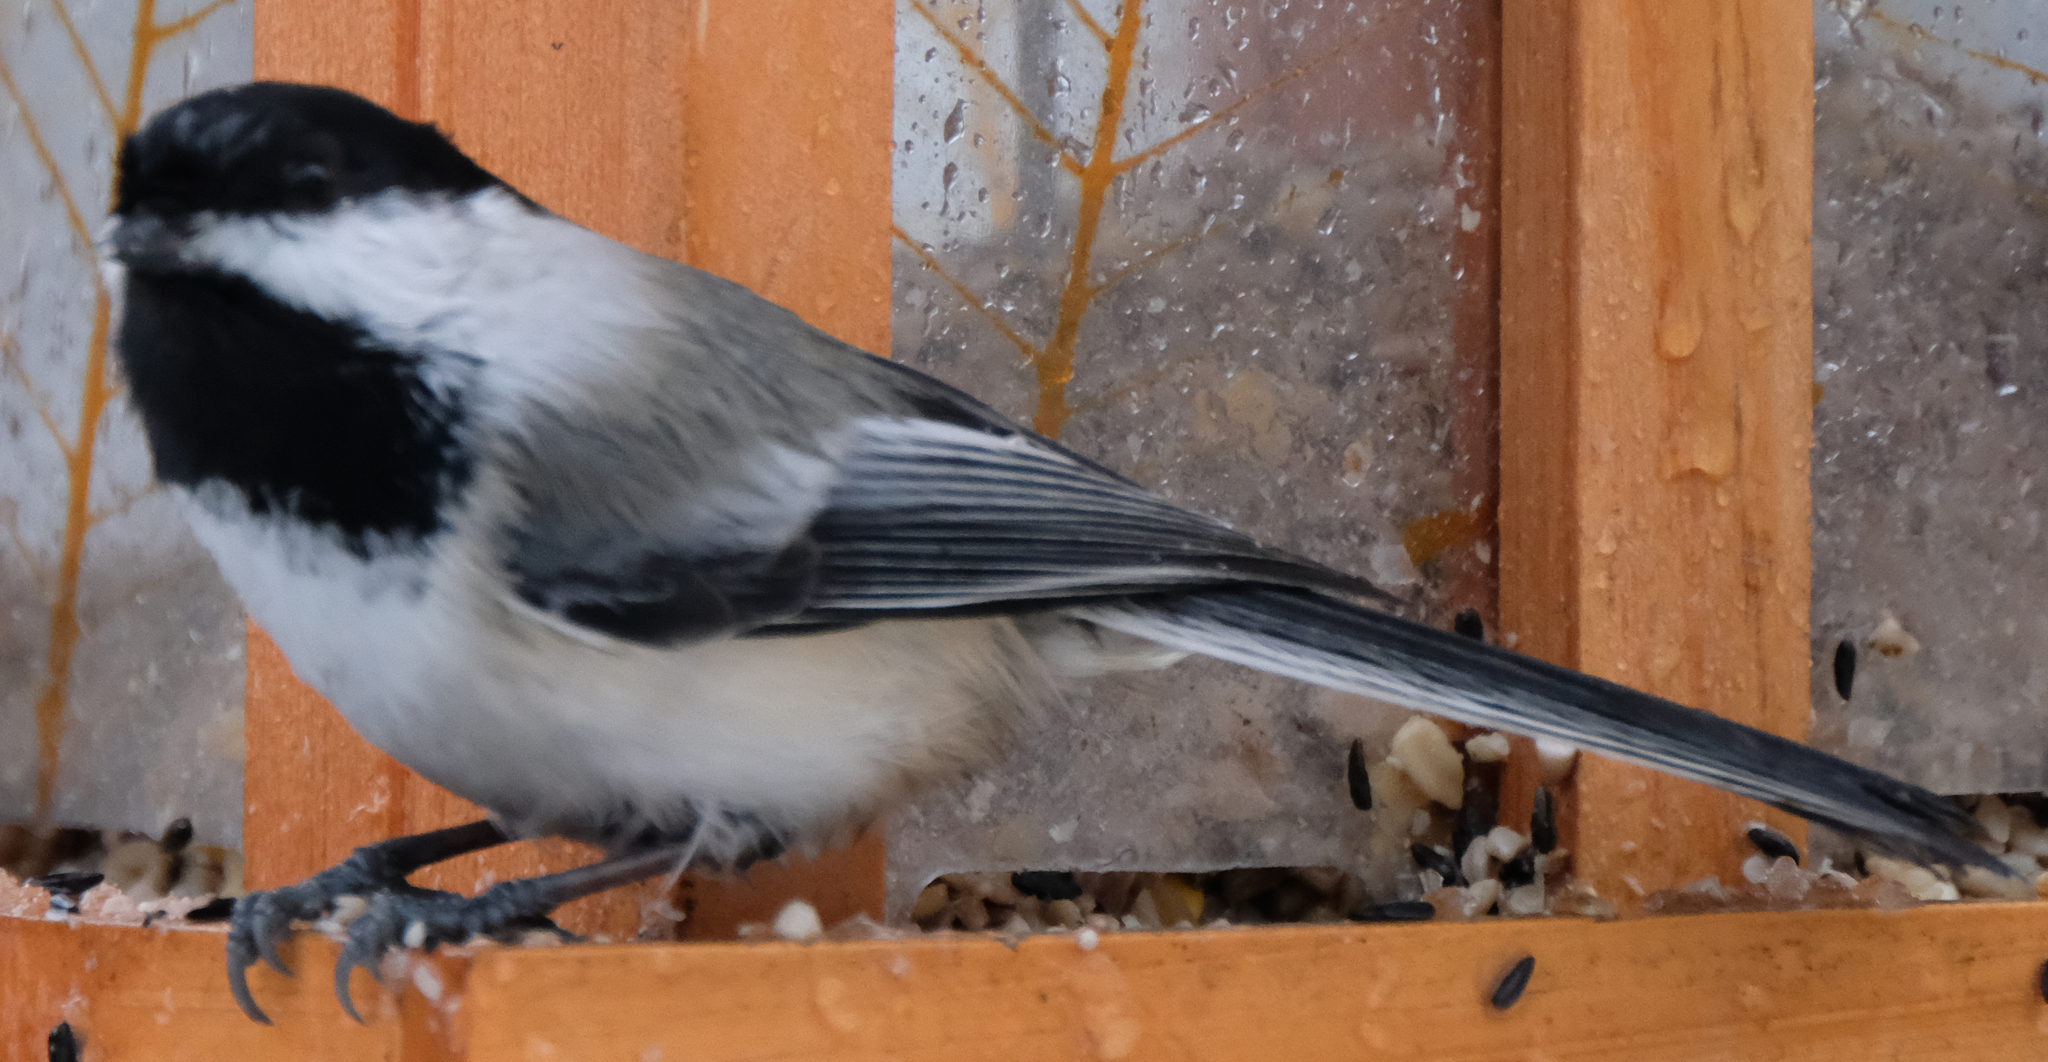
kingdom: Animalia
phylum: Chordata
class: Aves
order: Passeriformes
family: Paridae
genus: Poecile
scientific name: Poecile atricapillus
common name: Black-capped chickadee
